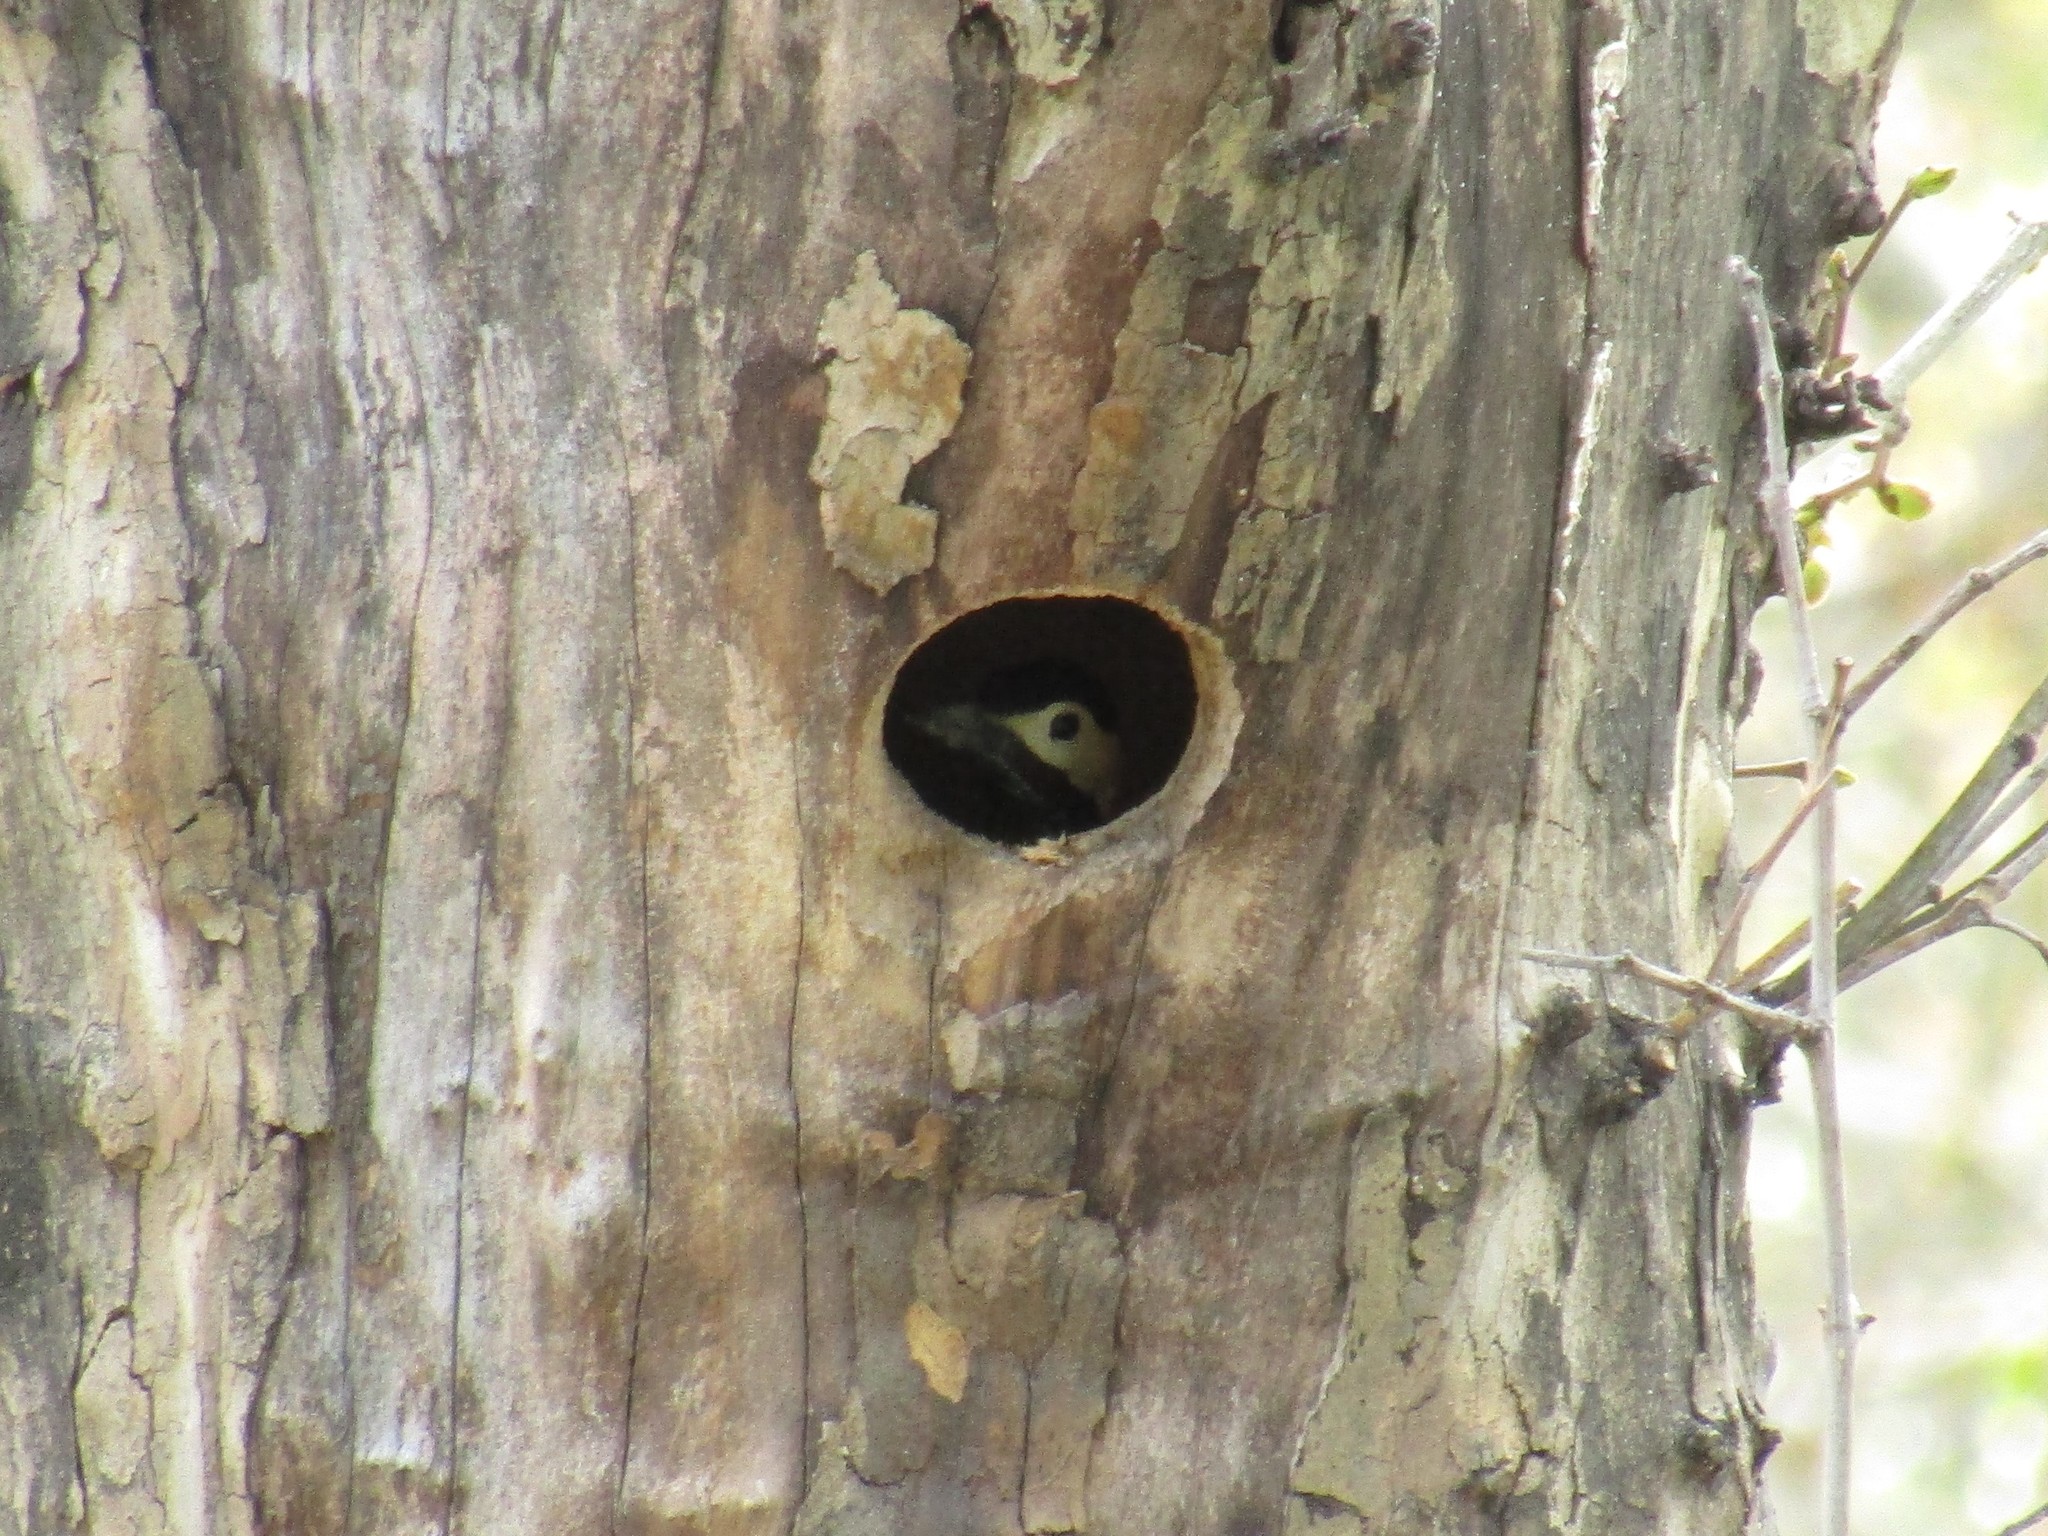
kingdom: Animalia
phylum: Chordata
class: Aves
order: Piciformes
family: Picidae
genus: Colaptes
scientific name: Colaptes melanochloros
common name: Green-barred woodpecker
